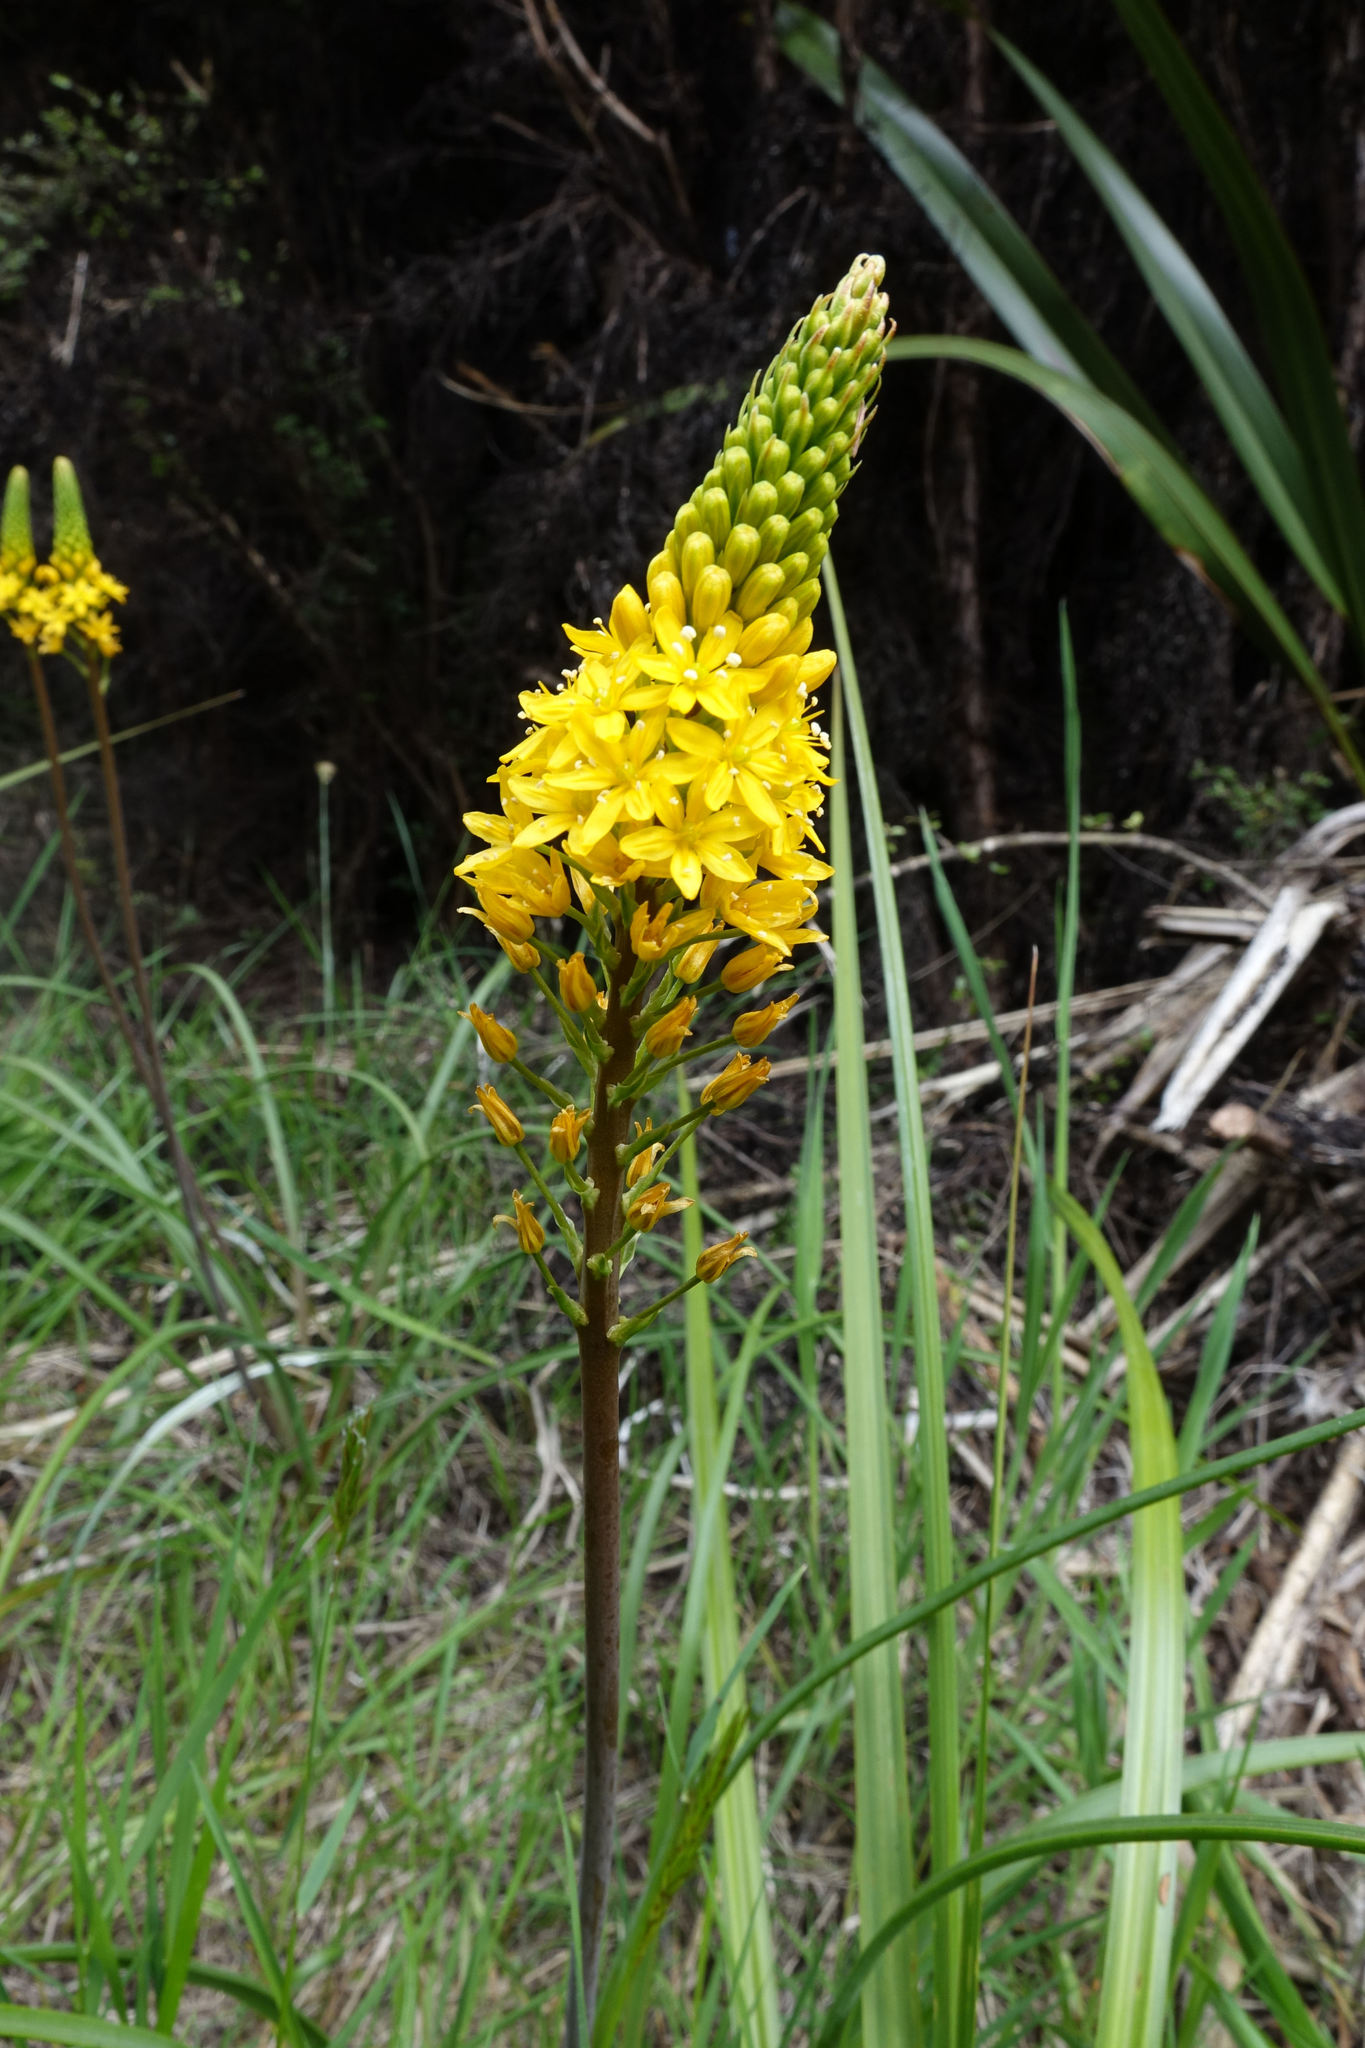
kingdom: Plantae
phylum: Tracheophyta
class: Liliopsida
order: Asparagales
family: Asphodelaceae
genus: Bulbinella
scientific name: Bulbinella angustifolia
